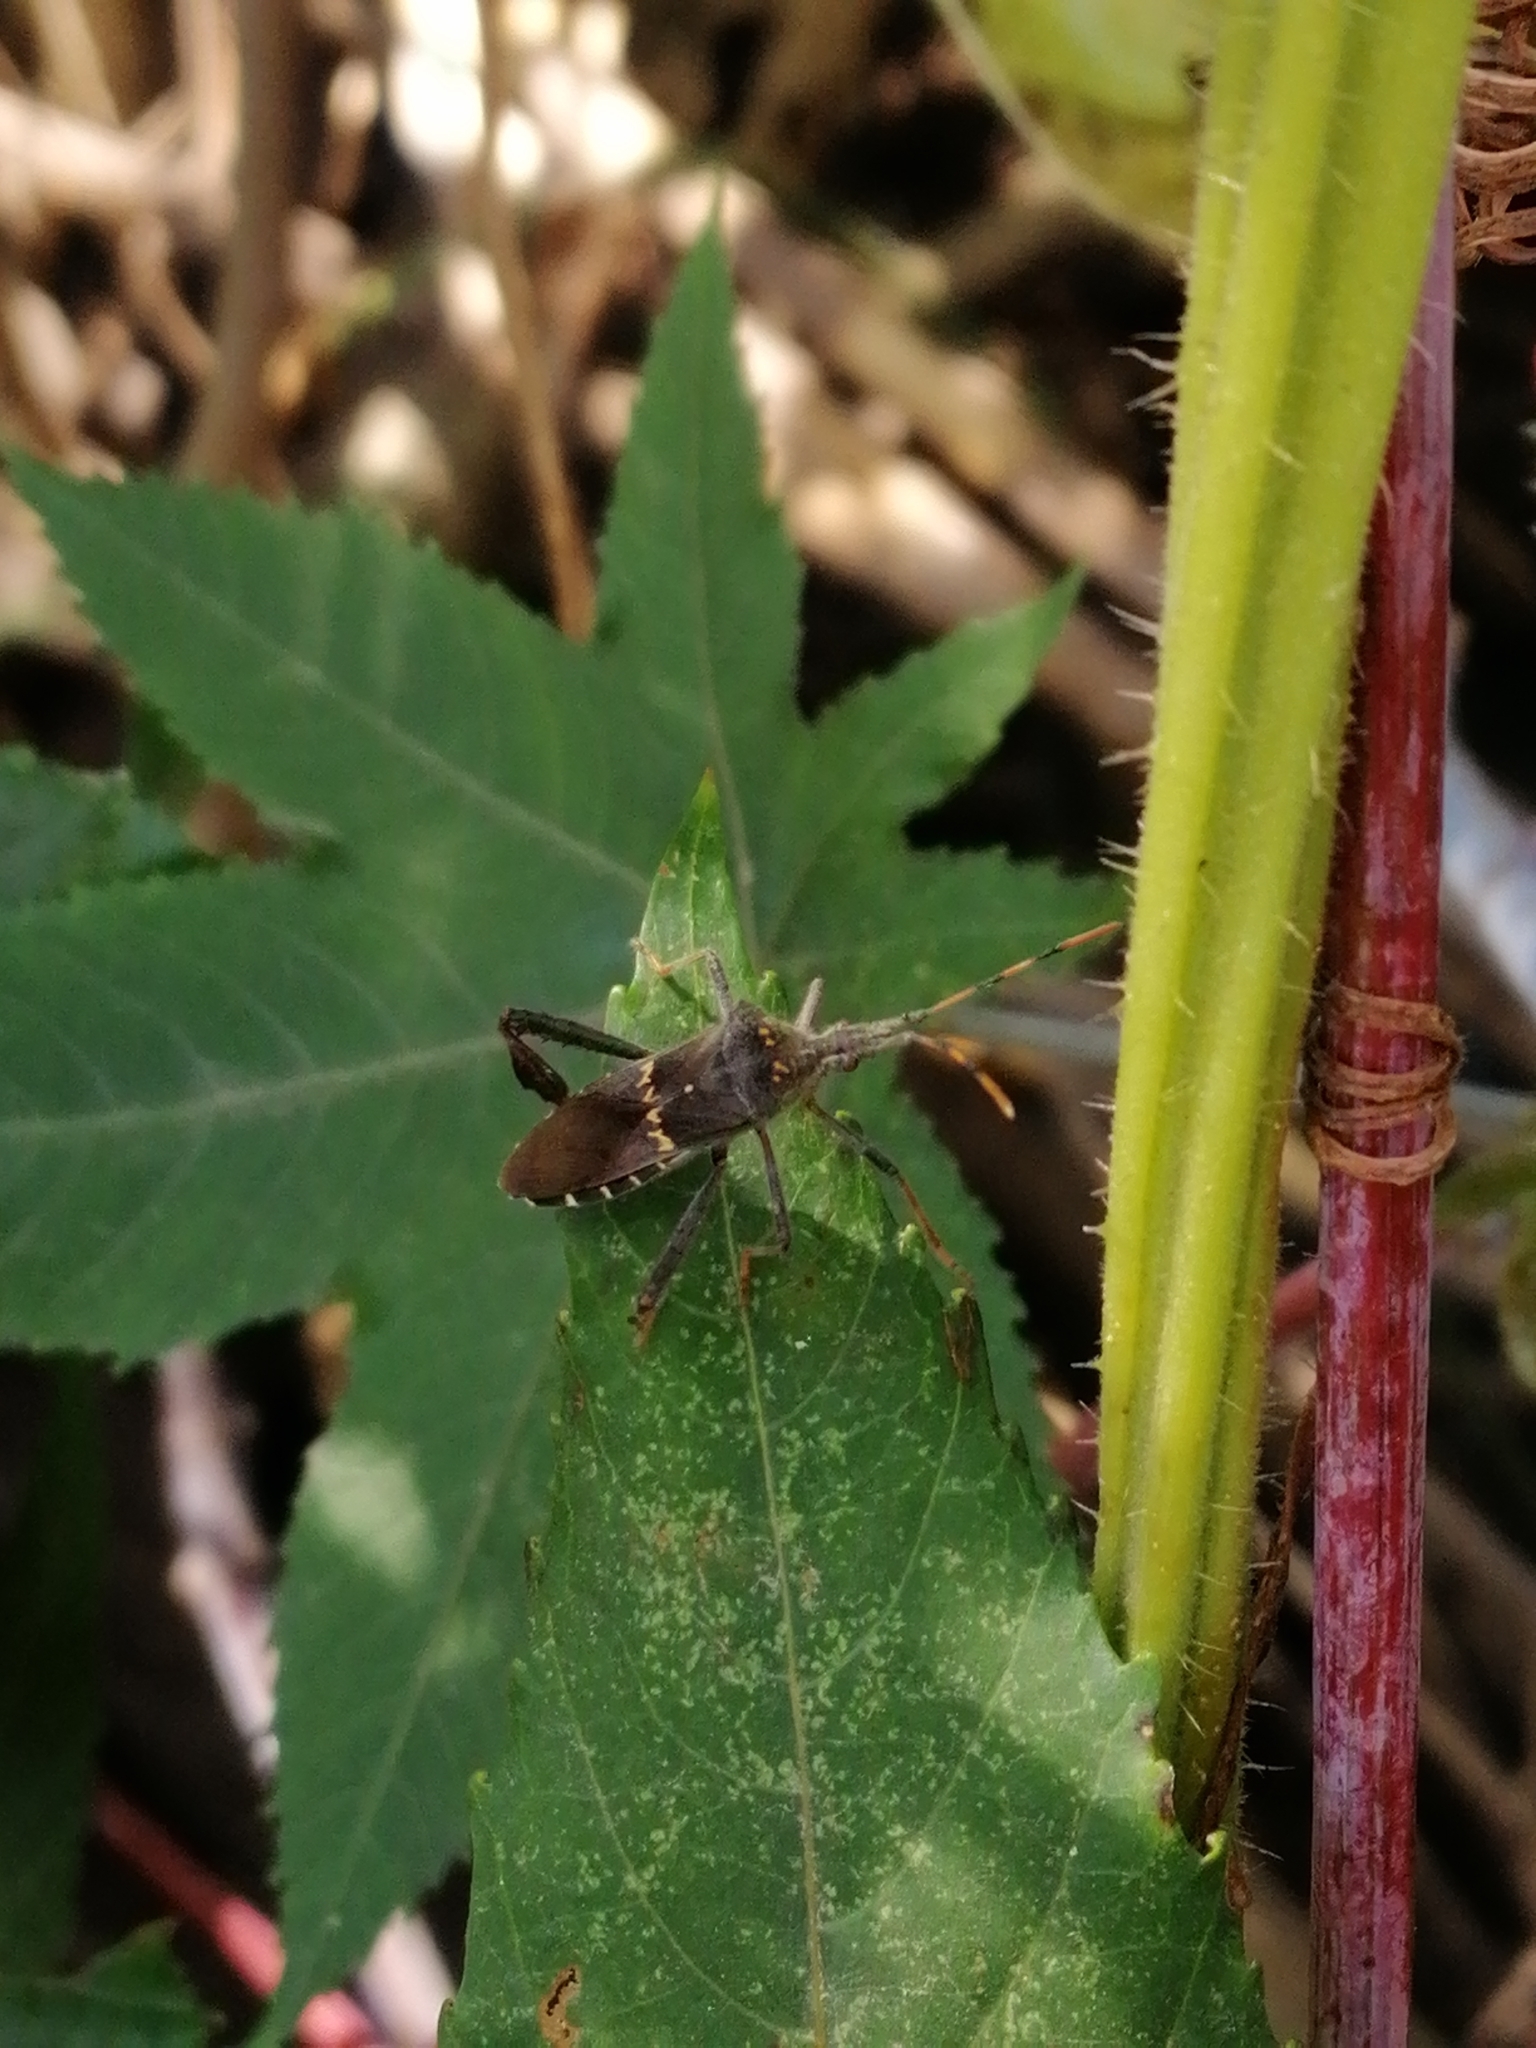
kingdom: Animalia
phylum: Arthropoda
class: Insecta
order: Hemiptera
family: Coreidae
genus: Leptoglossus
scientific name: Leptoglossus zonatus
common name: Large-legged bug
